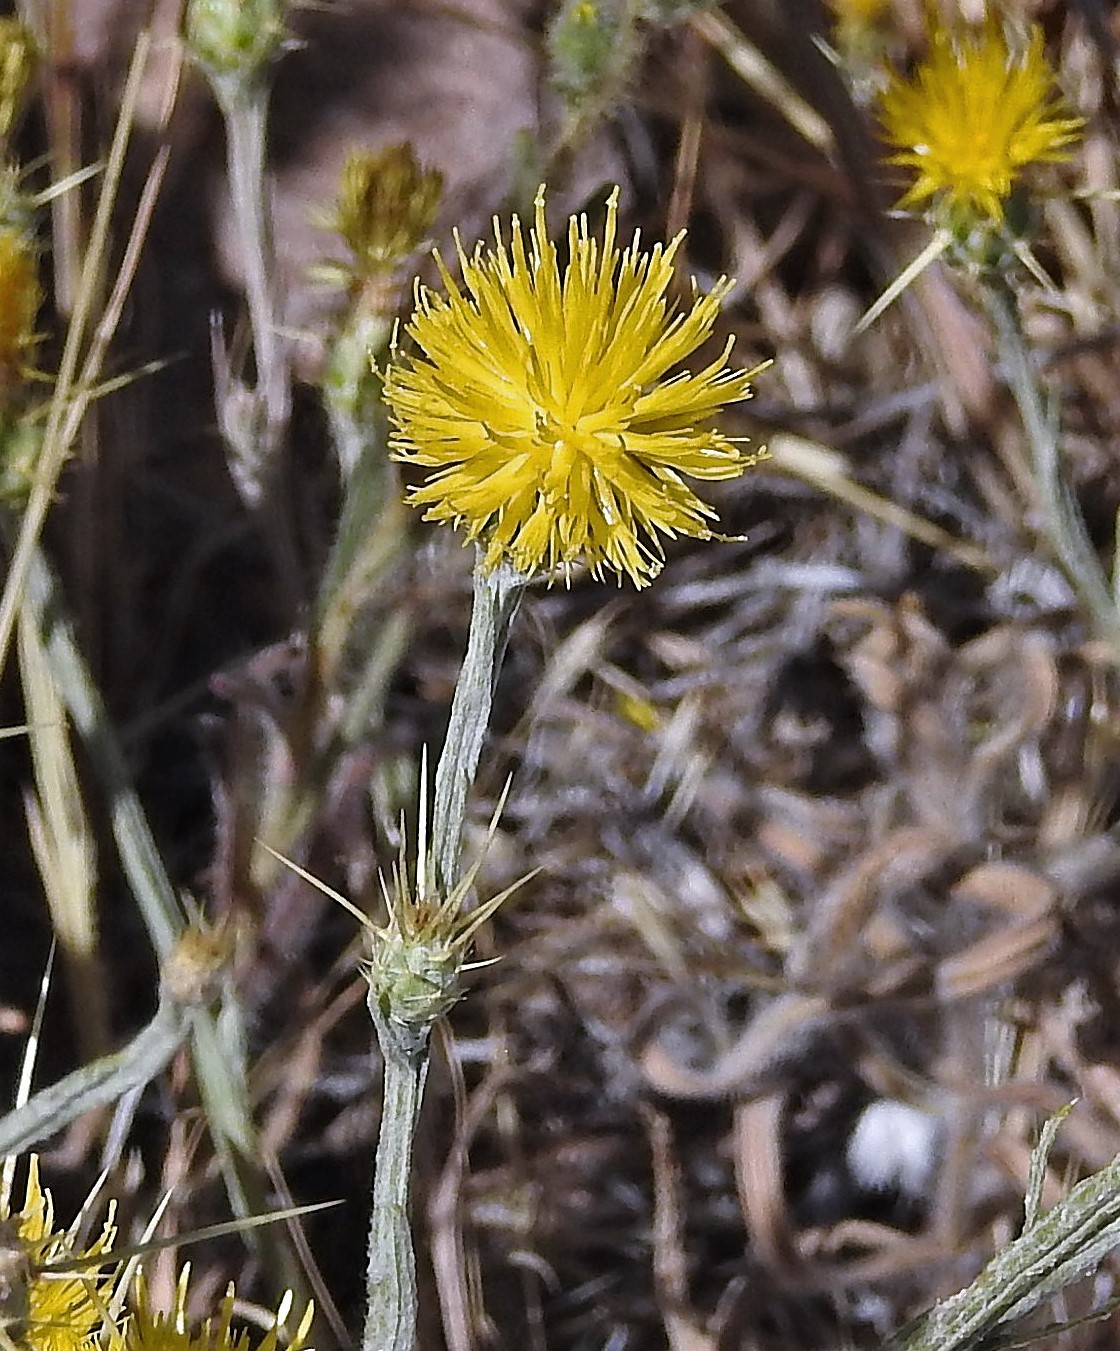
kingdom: Plantae
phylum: Tracheophyta
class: Magnoliopsida
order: Asterales
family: Asteraceae
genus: Centaurea
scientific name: Centaurea solstitialis
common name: Yellow star-thistle
